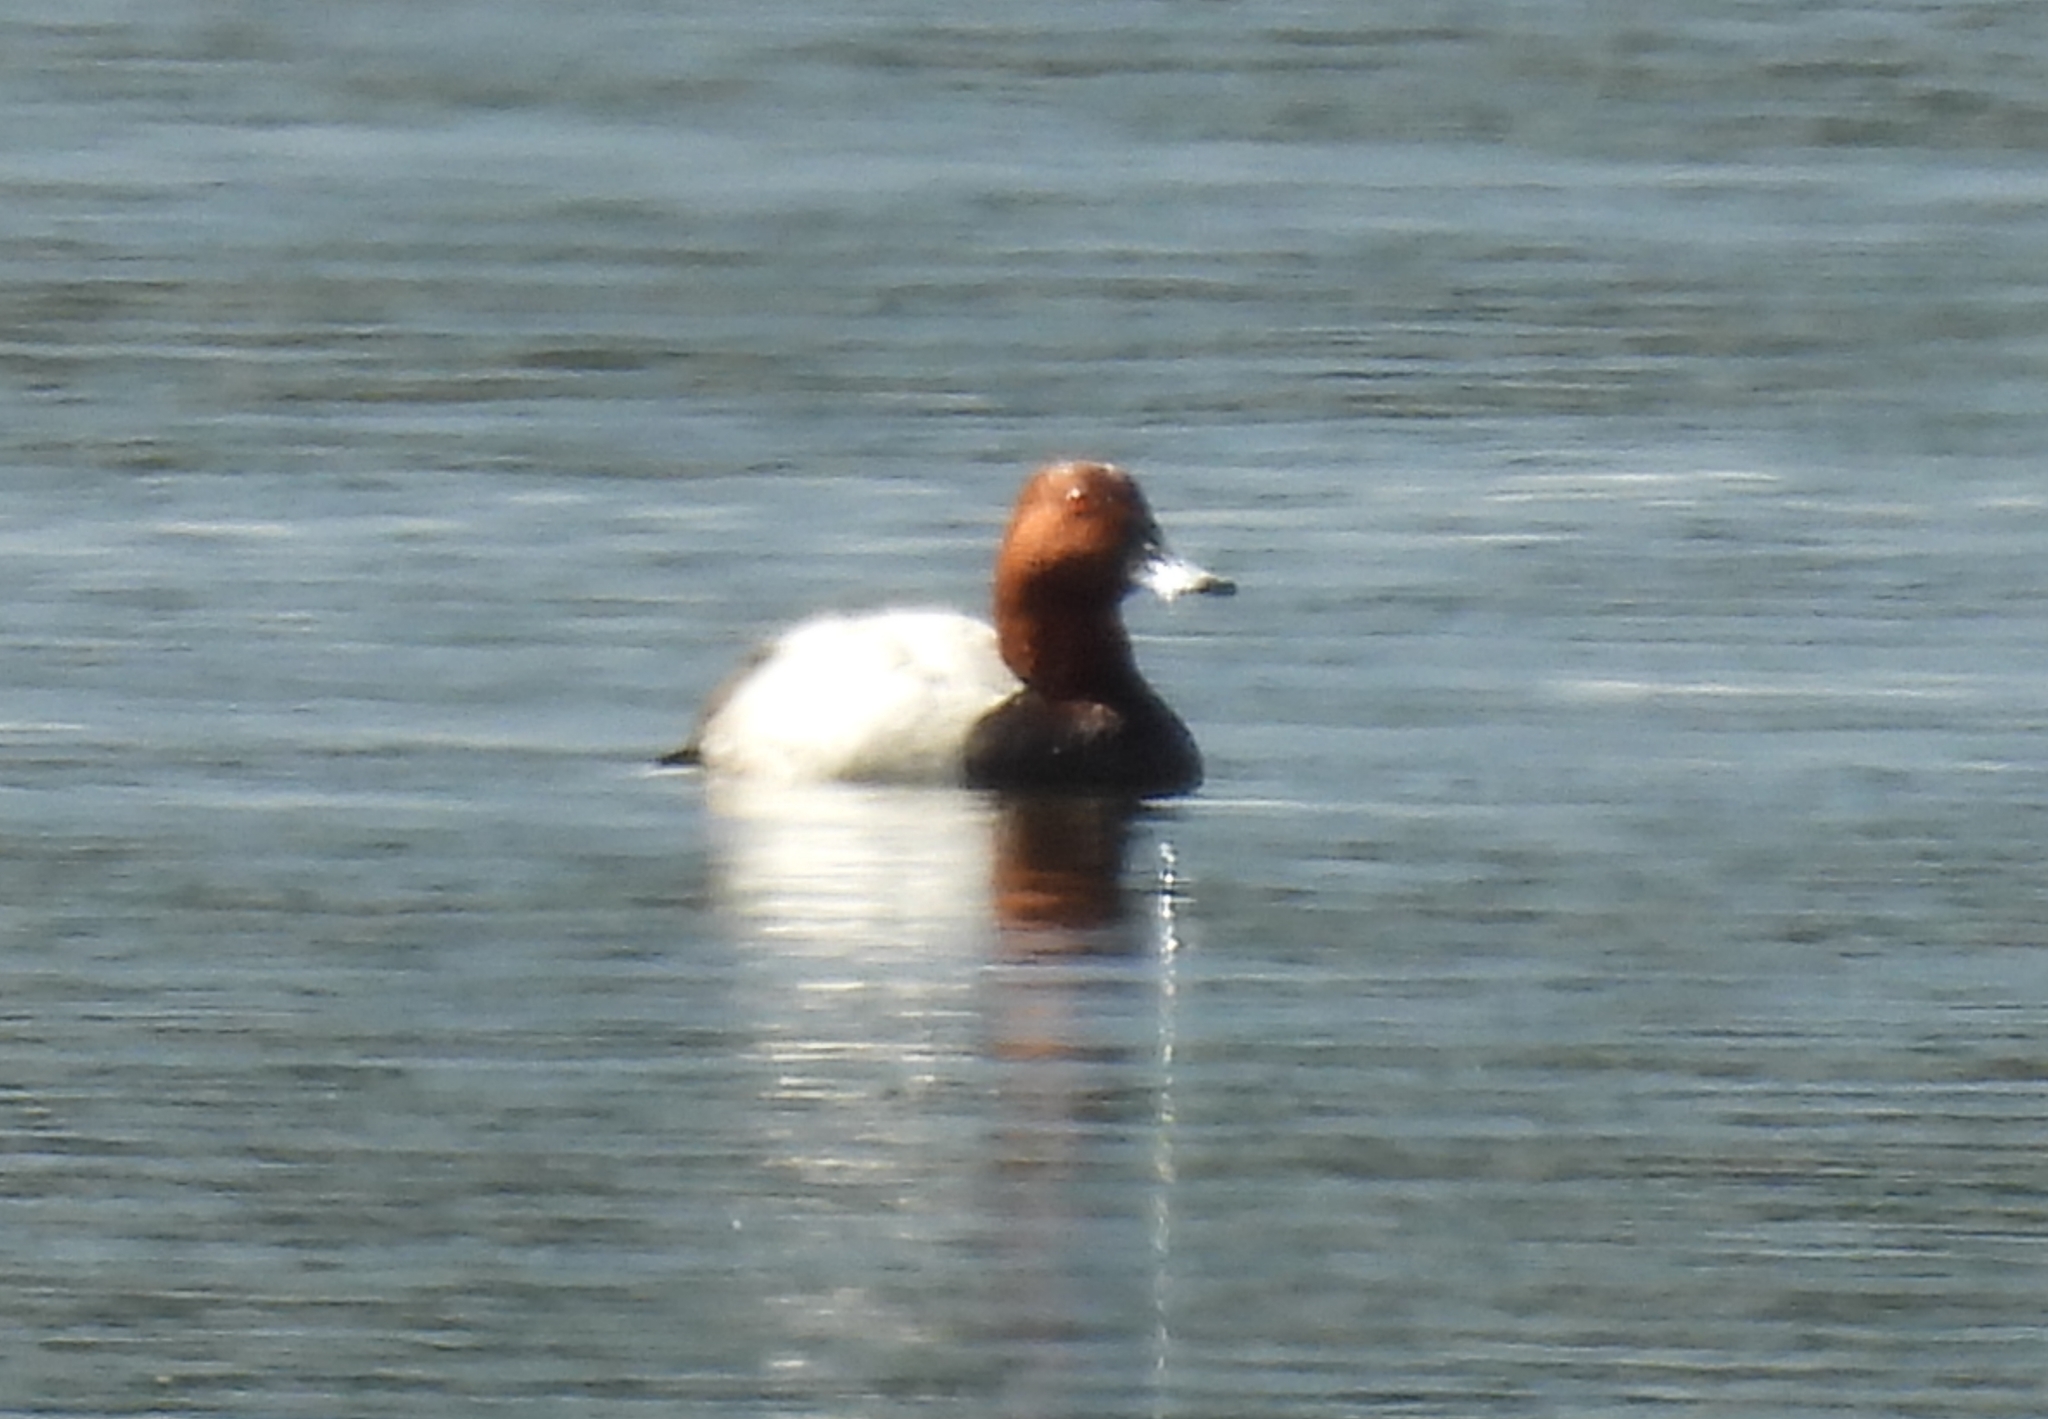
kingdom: Animalia
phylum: Chordata
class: Aves
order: Anseriformes
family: Anatidae
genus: Aythya
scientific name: Aythya ferina
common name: Common pochard
